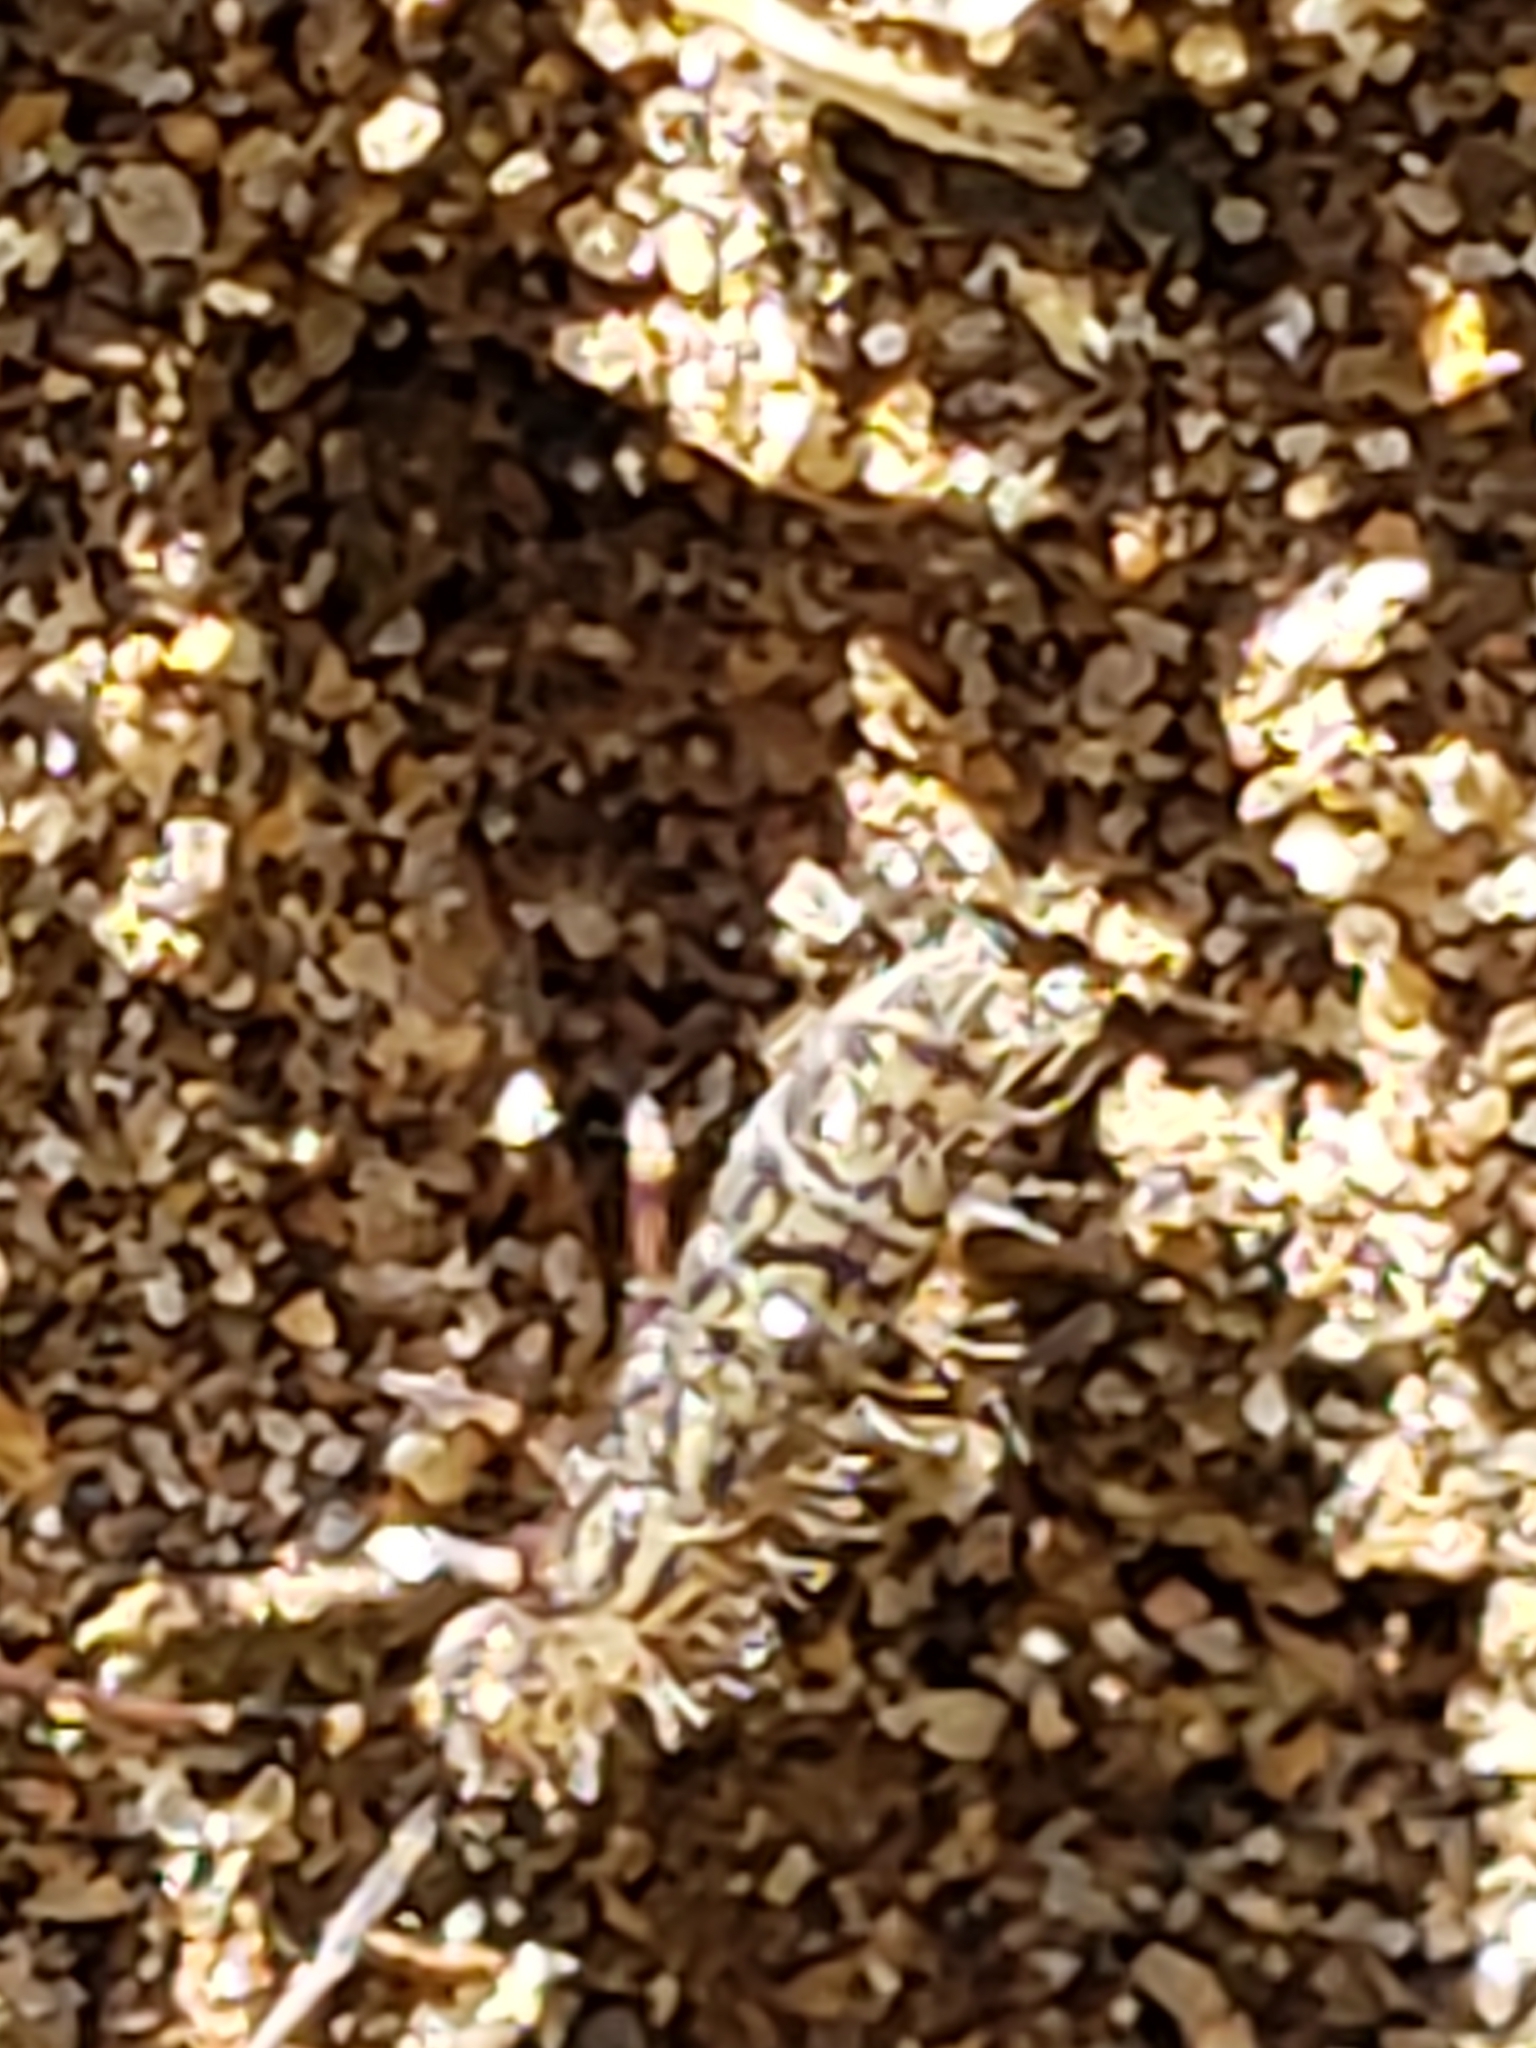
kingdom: Animalia
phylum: Arthropoda
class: Collembola
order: Entomobryomorpha
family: Orchesellidae
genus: Orchesella
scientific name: Orchesella villosa
